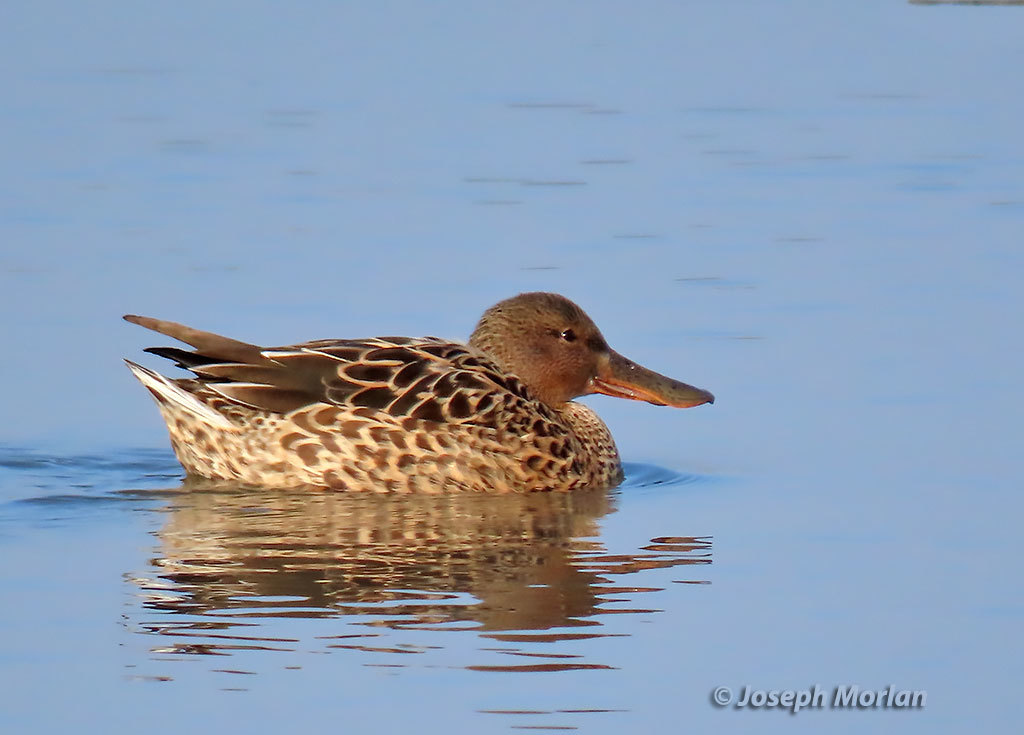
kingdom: Animalia
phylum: Chordata
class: Aves
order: Anseriformes
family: Anatidae
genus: Spatula
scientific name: Spatula clypeata
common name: Northern shoveler
